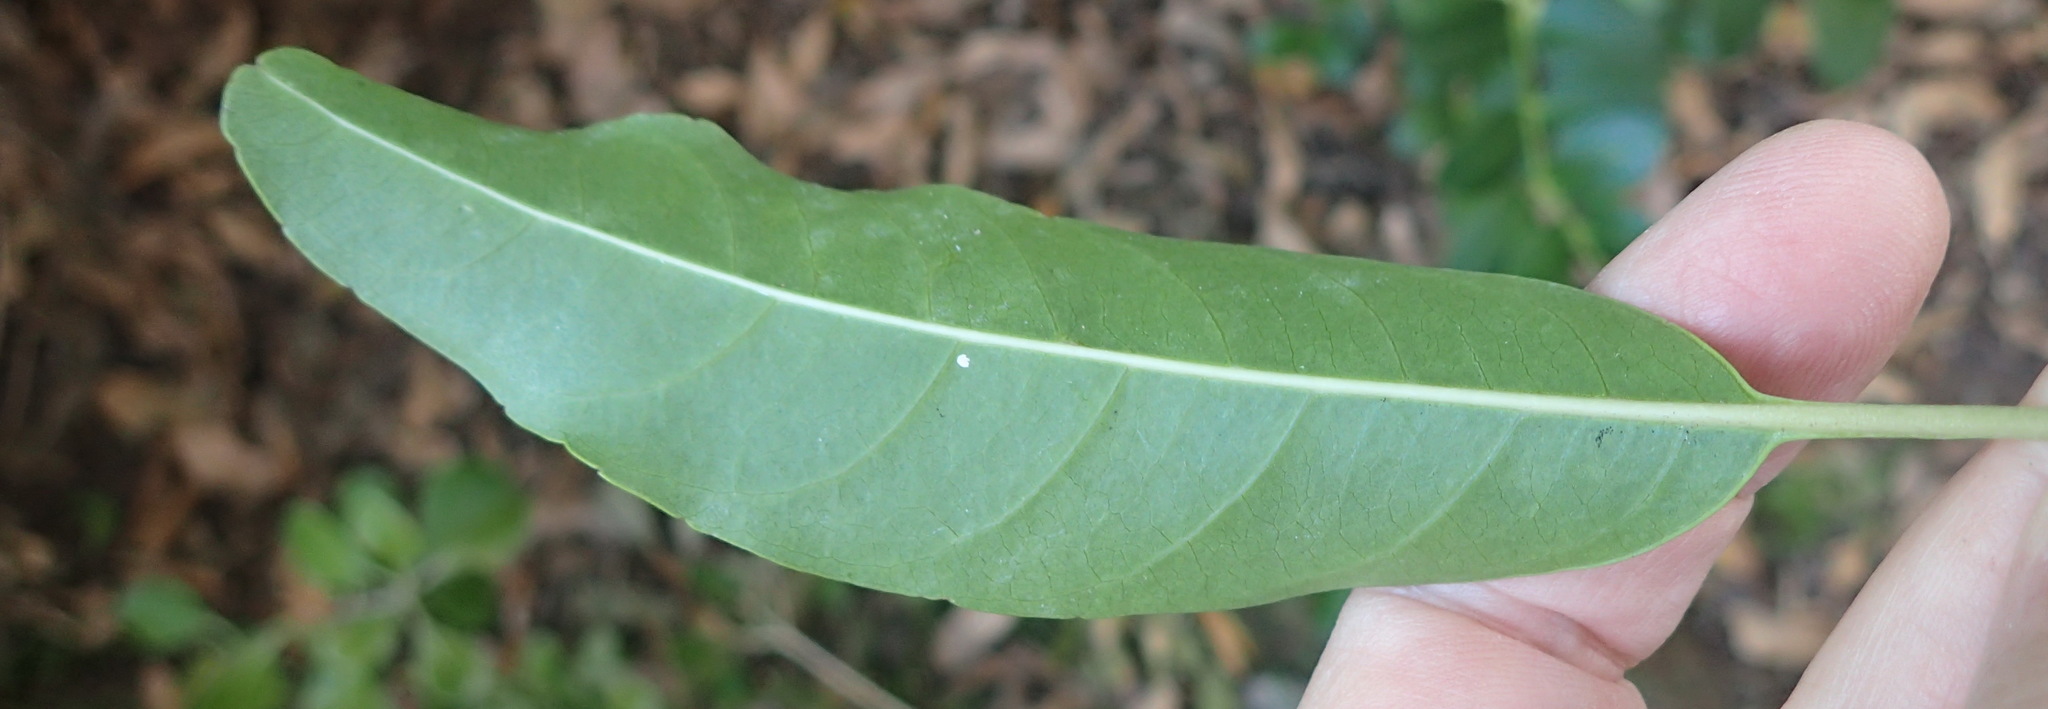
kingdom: Plantae
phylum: Tracheophyta
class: Magnoliopsida
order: Lamiales
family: Stilbaceae
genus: Nuxia
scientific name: Nuxia floribunda
